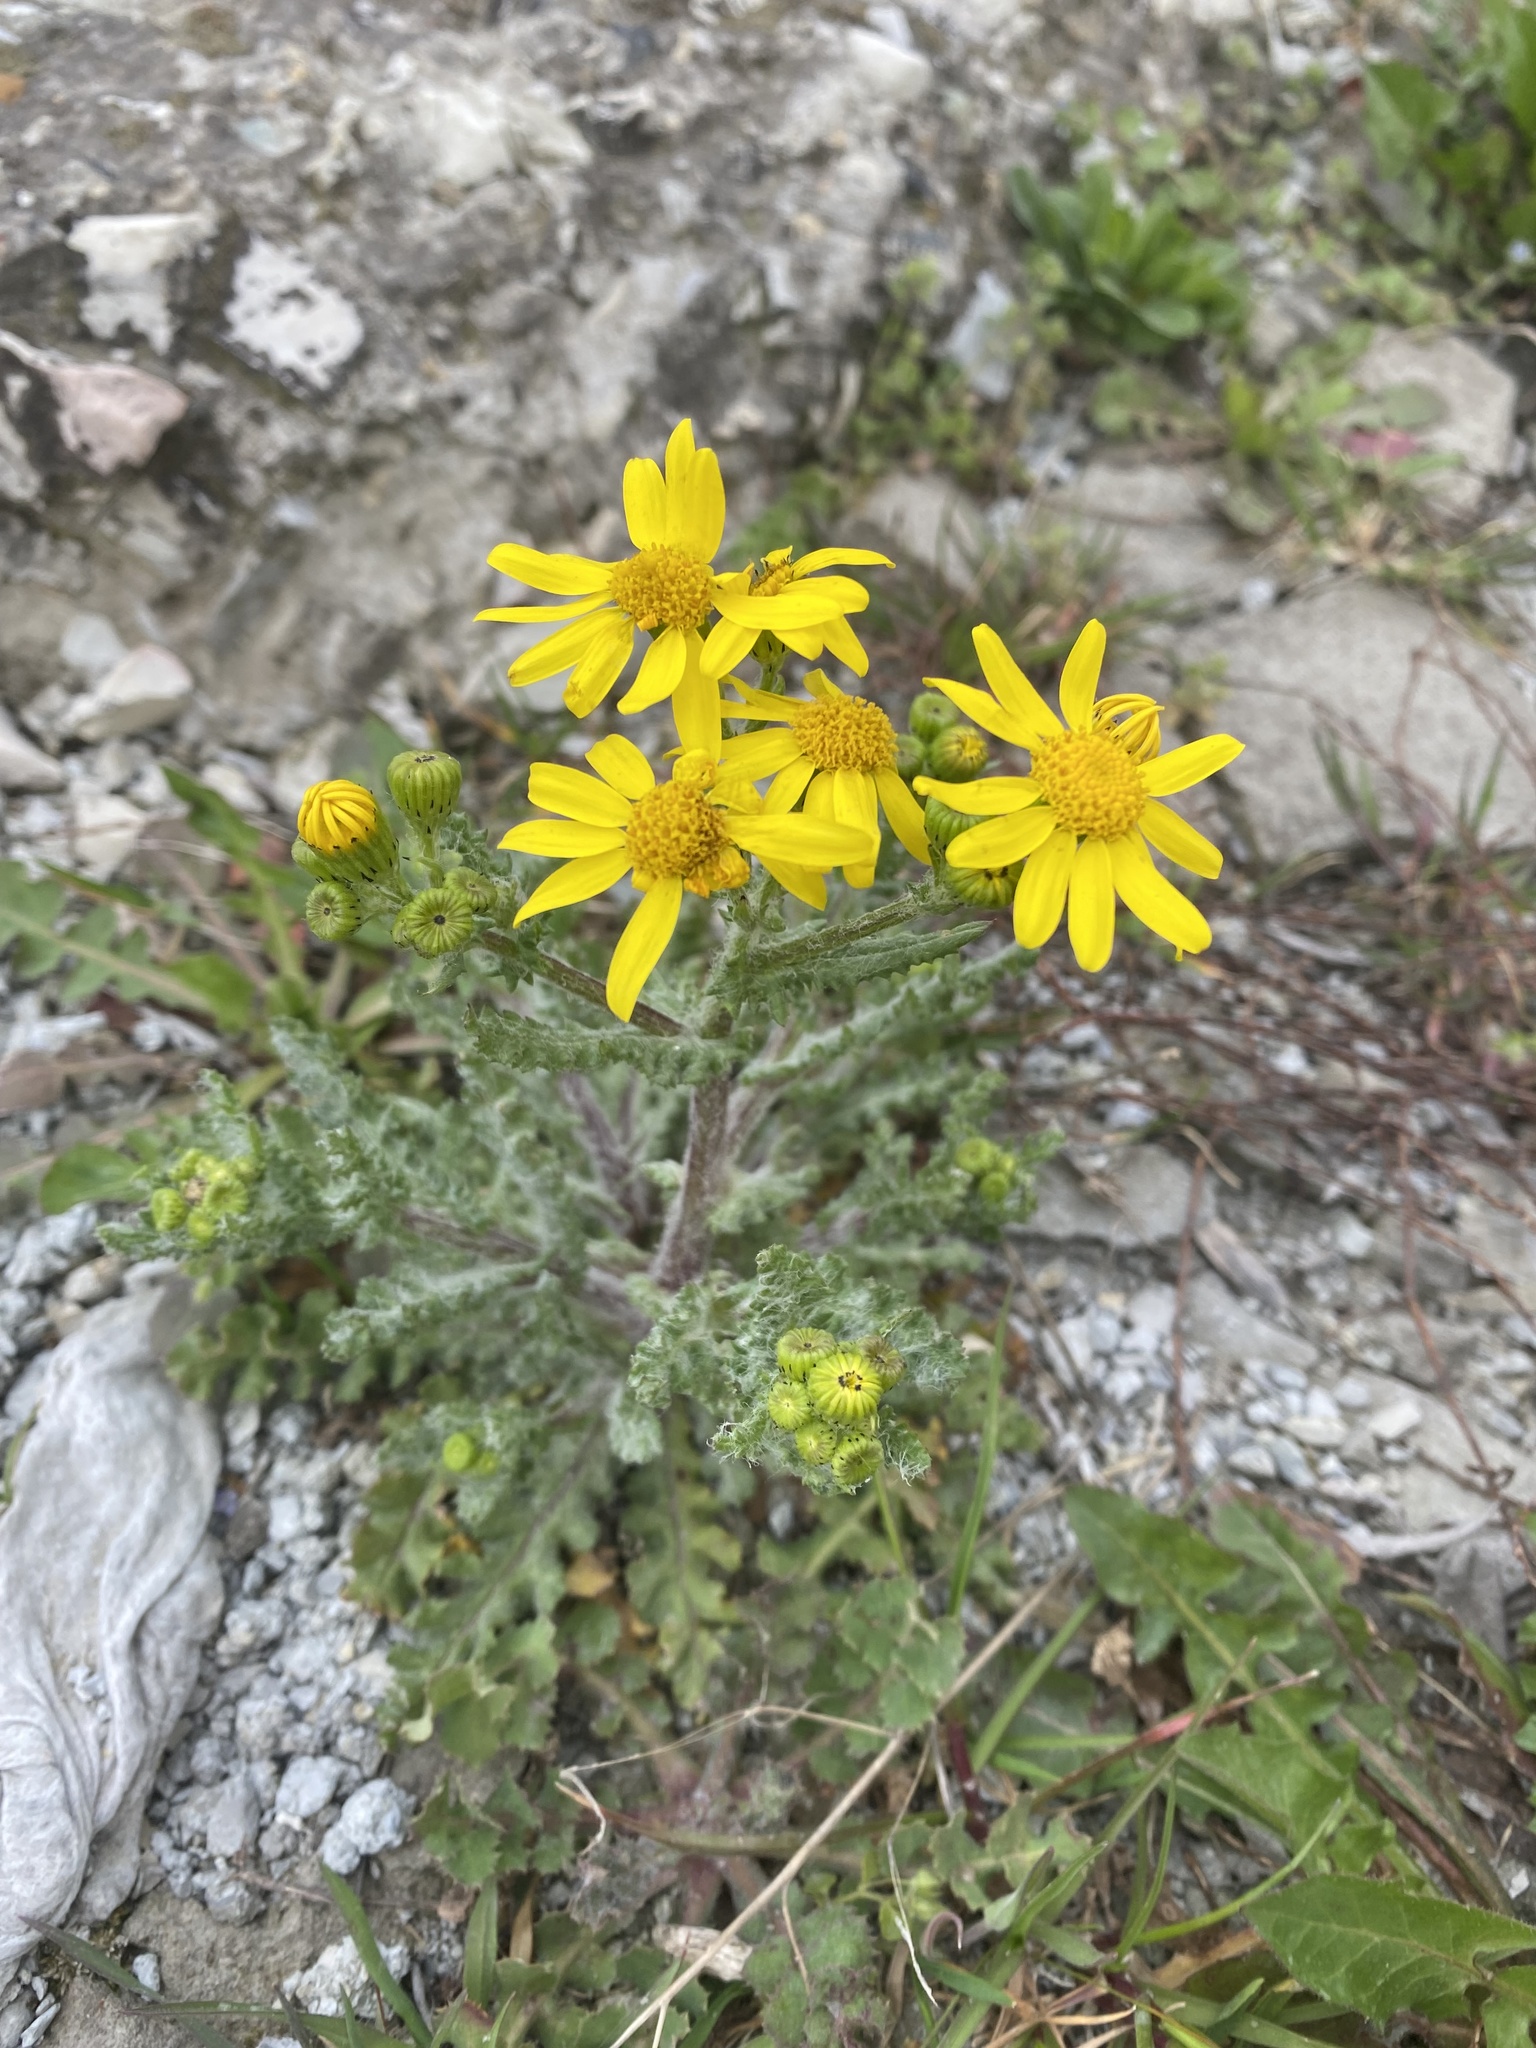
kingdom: Plantae
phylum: Tracheophyta
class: Magnoliopsida
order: Asterales
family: Asteraceae
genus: Senecio
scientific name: Senecio vernalis
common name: Eastern groundsel
